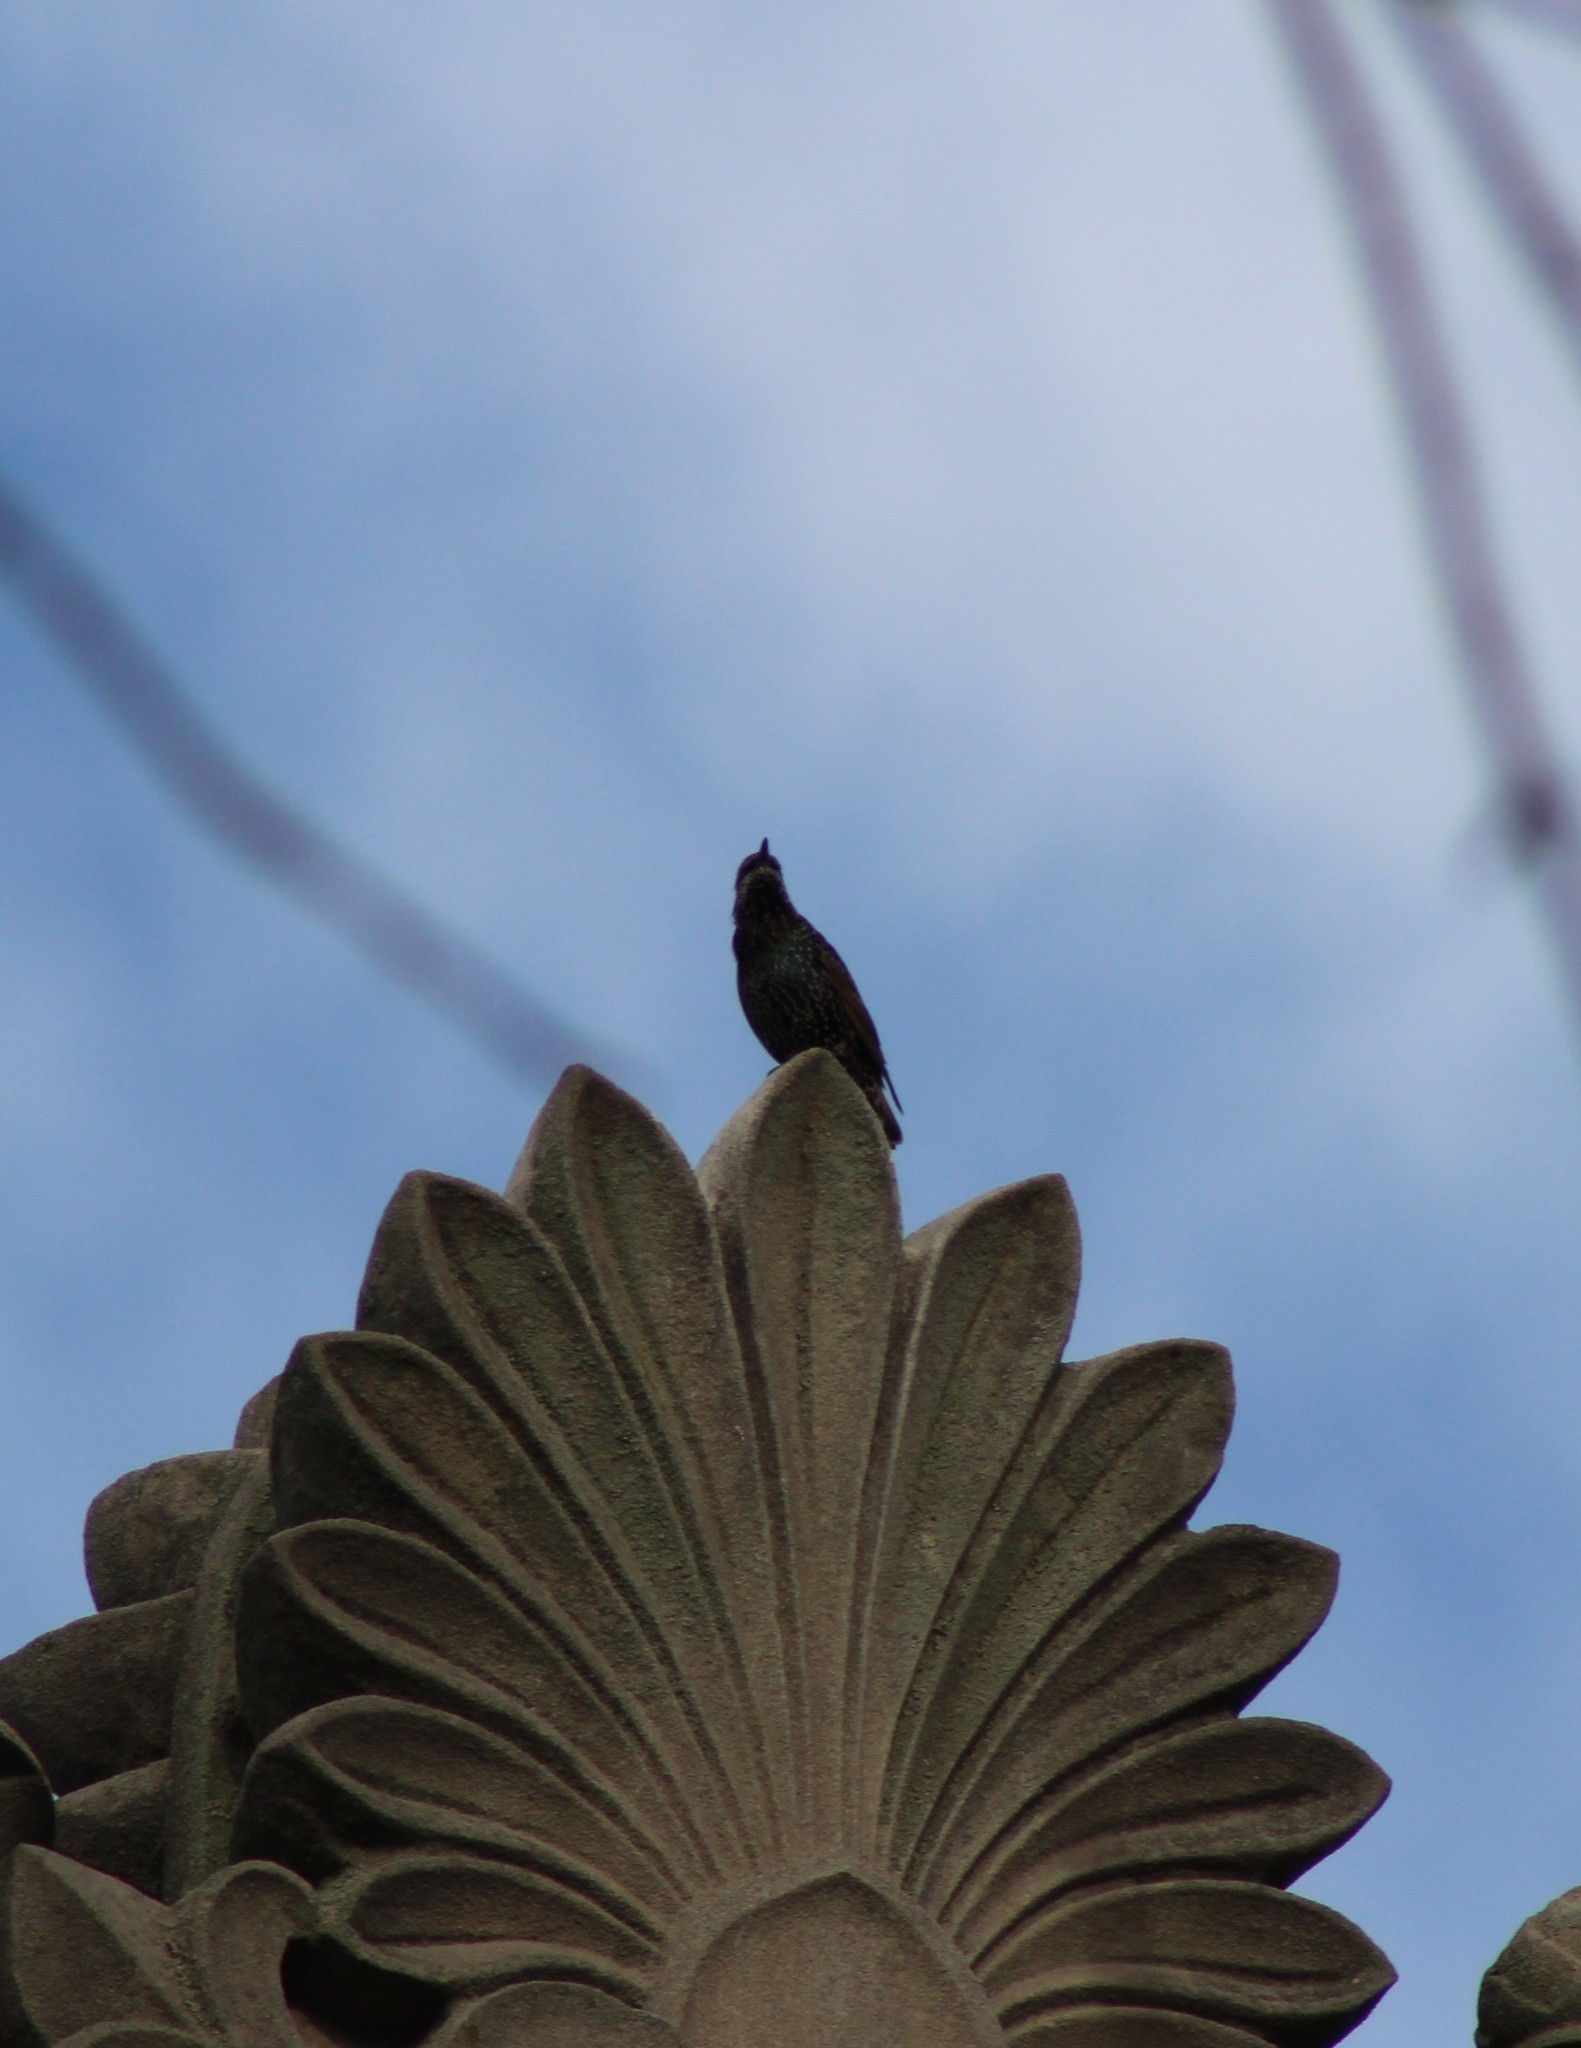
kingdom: Animalia
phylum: Chordata
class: Aves
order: Passeriformes
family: Sturnidae
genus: Sturnus
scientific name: Sturnus vulgaris
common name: Common starling
